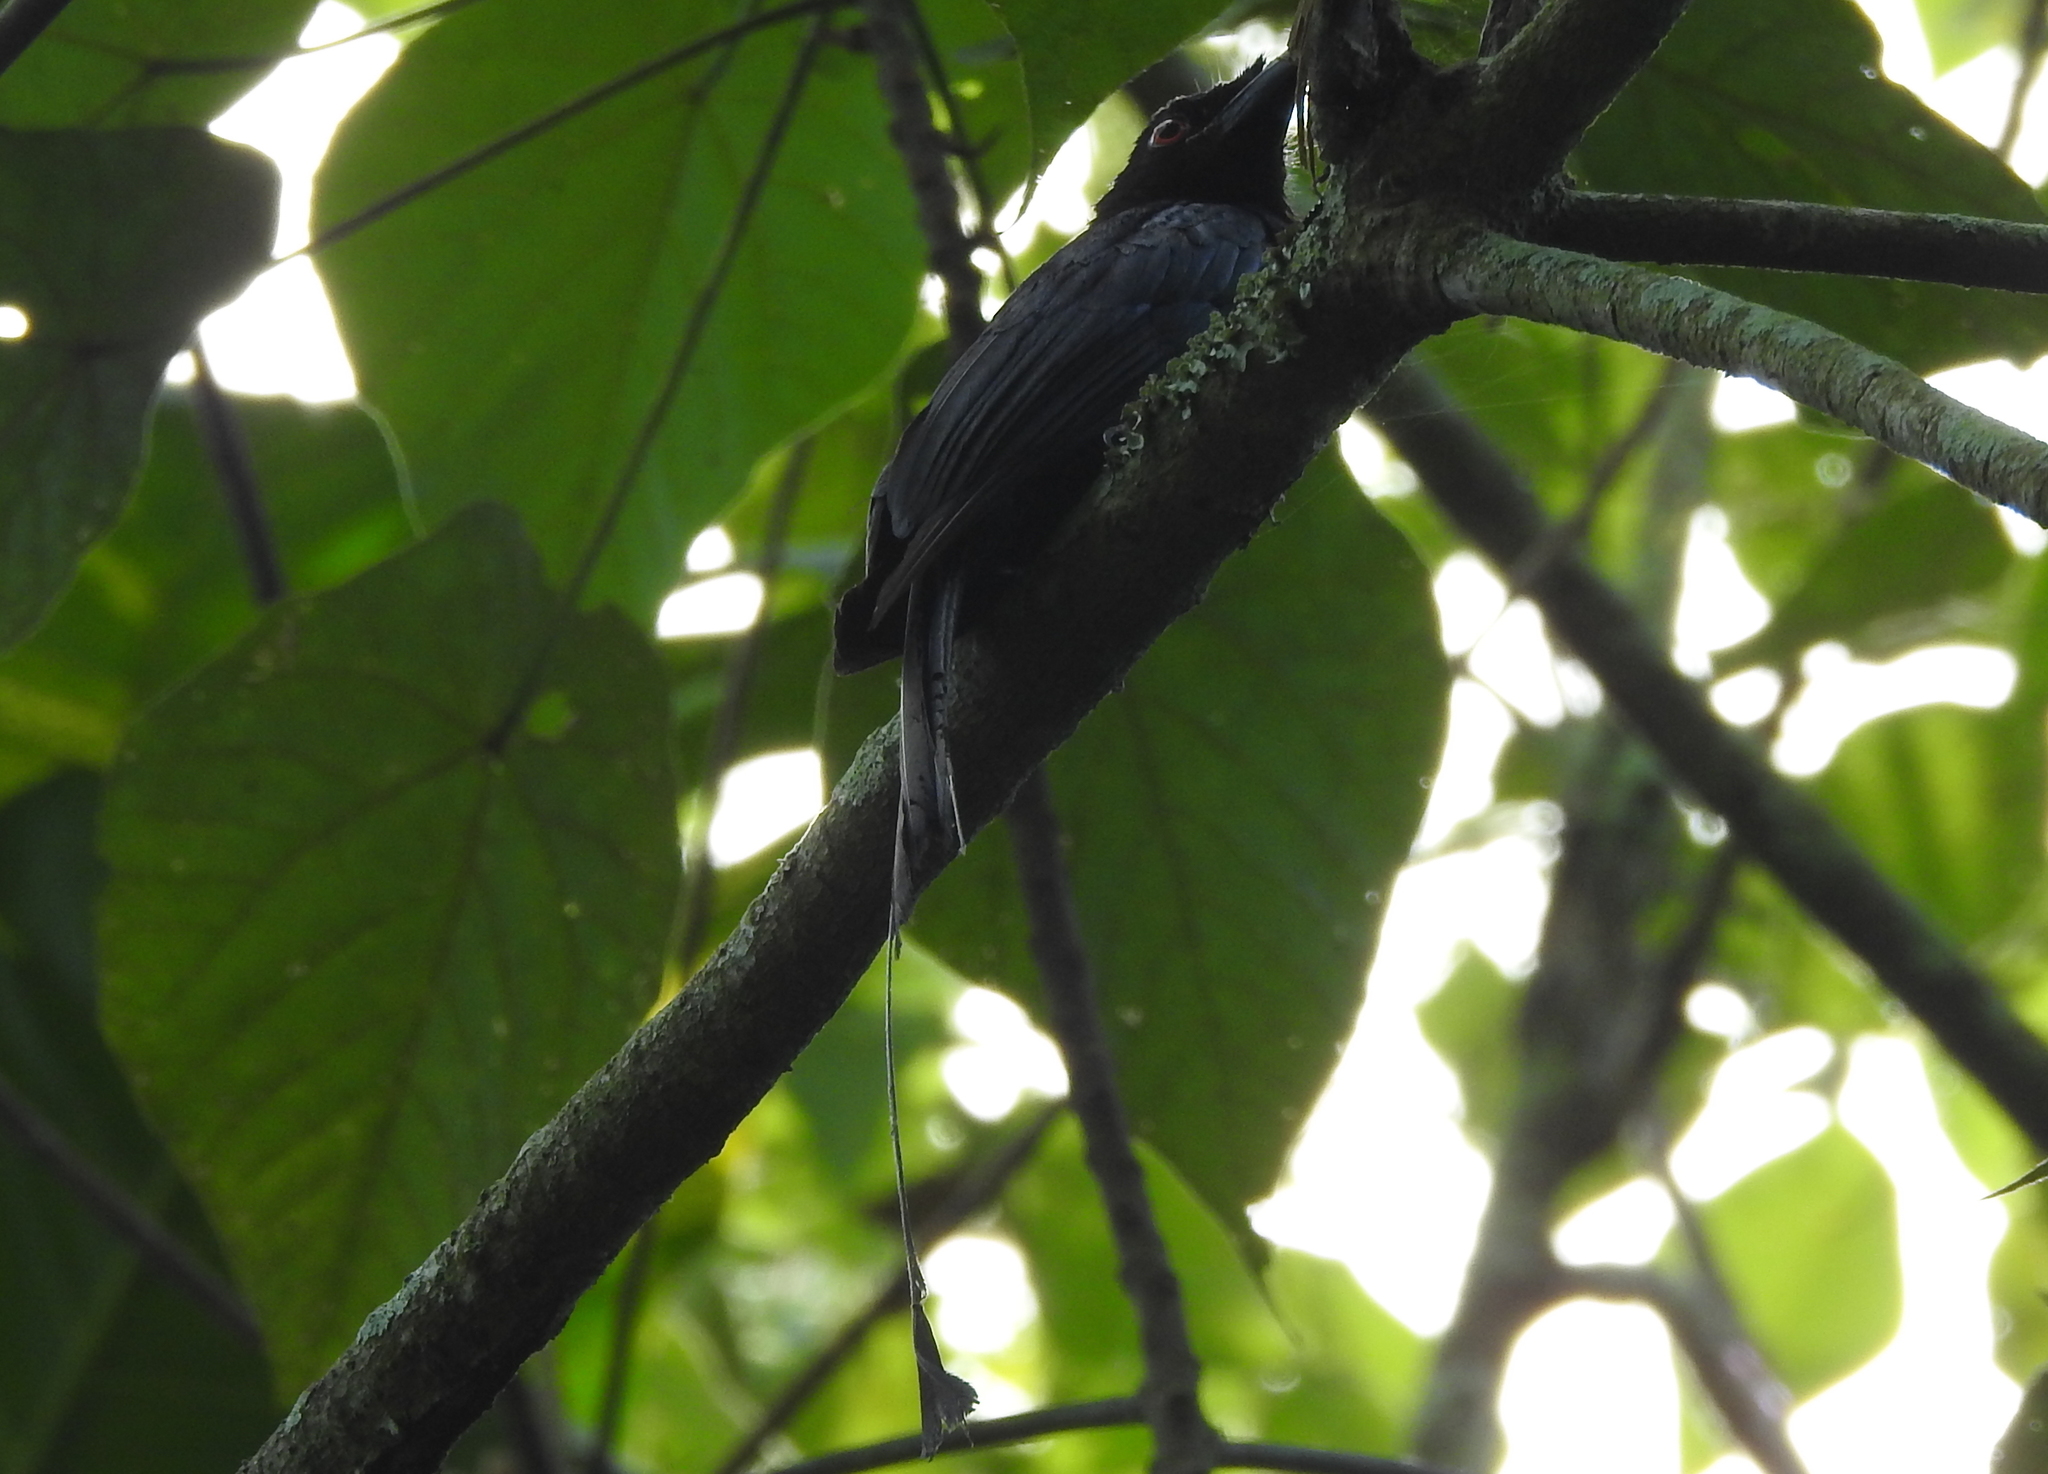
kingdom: Animalia
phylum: Chordata
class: Aves
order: Passeriformes
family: Dicruridae
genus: Dicrurus
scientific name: Dicrurus paradiseus
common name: Greater racket-tailed drongo
